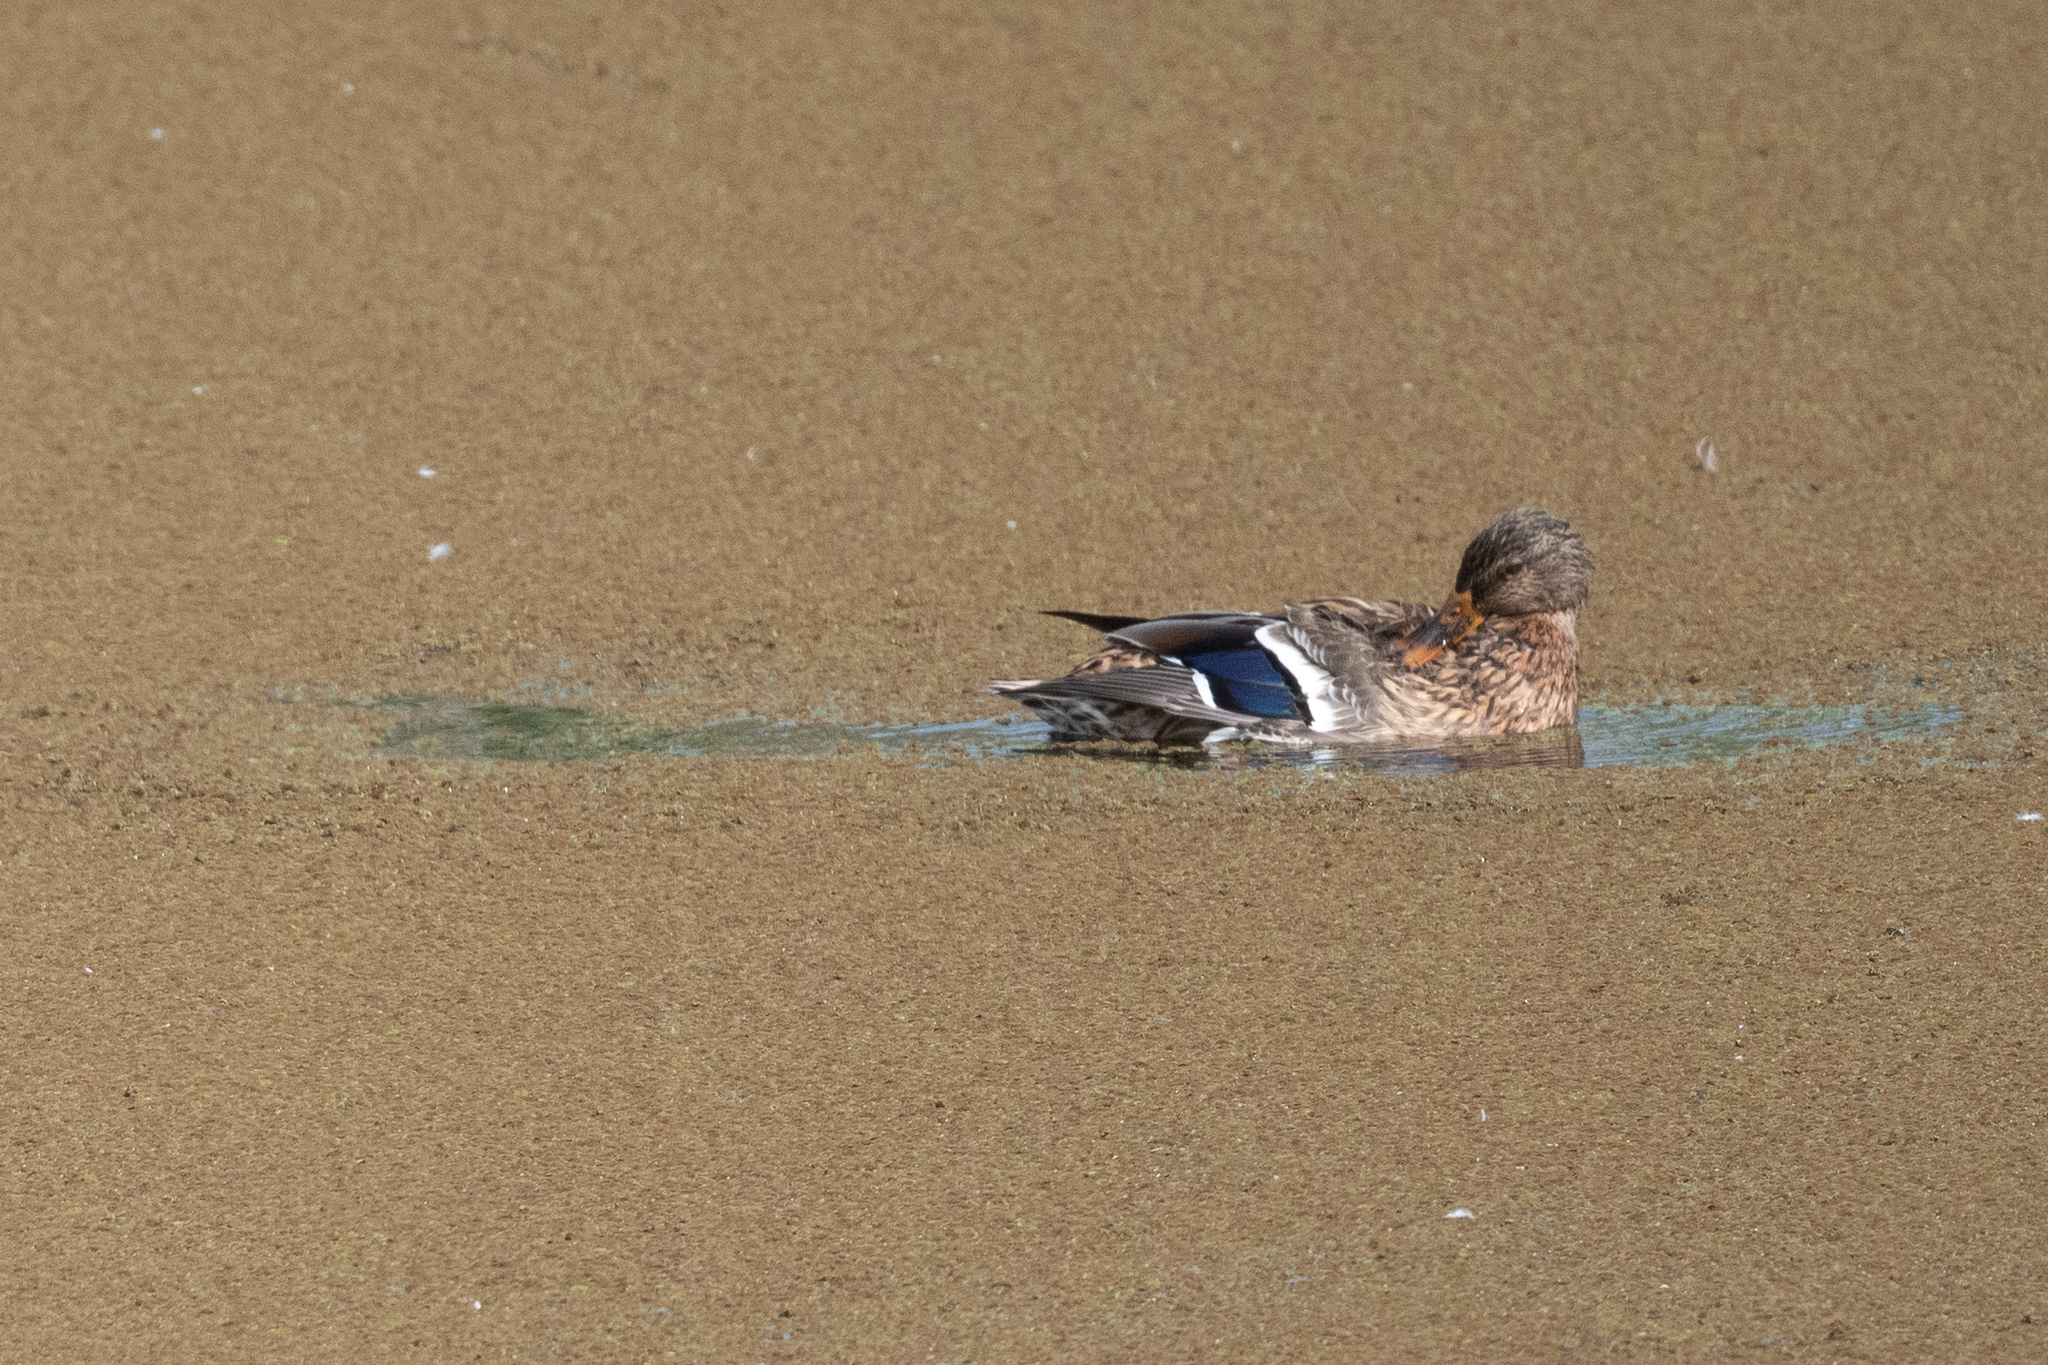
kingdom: Animalia
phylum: Chordata
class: Aves
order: Anseriformes
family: Anatidae
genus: Anas
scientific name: Anas platyrhynchos
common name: Mallard
